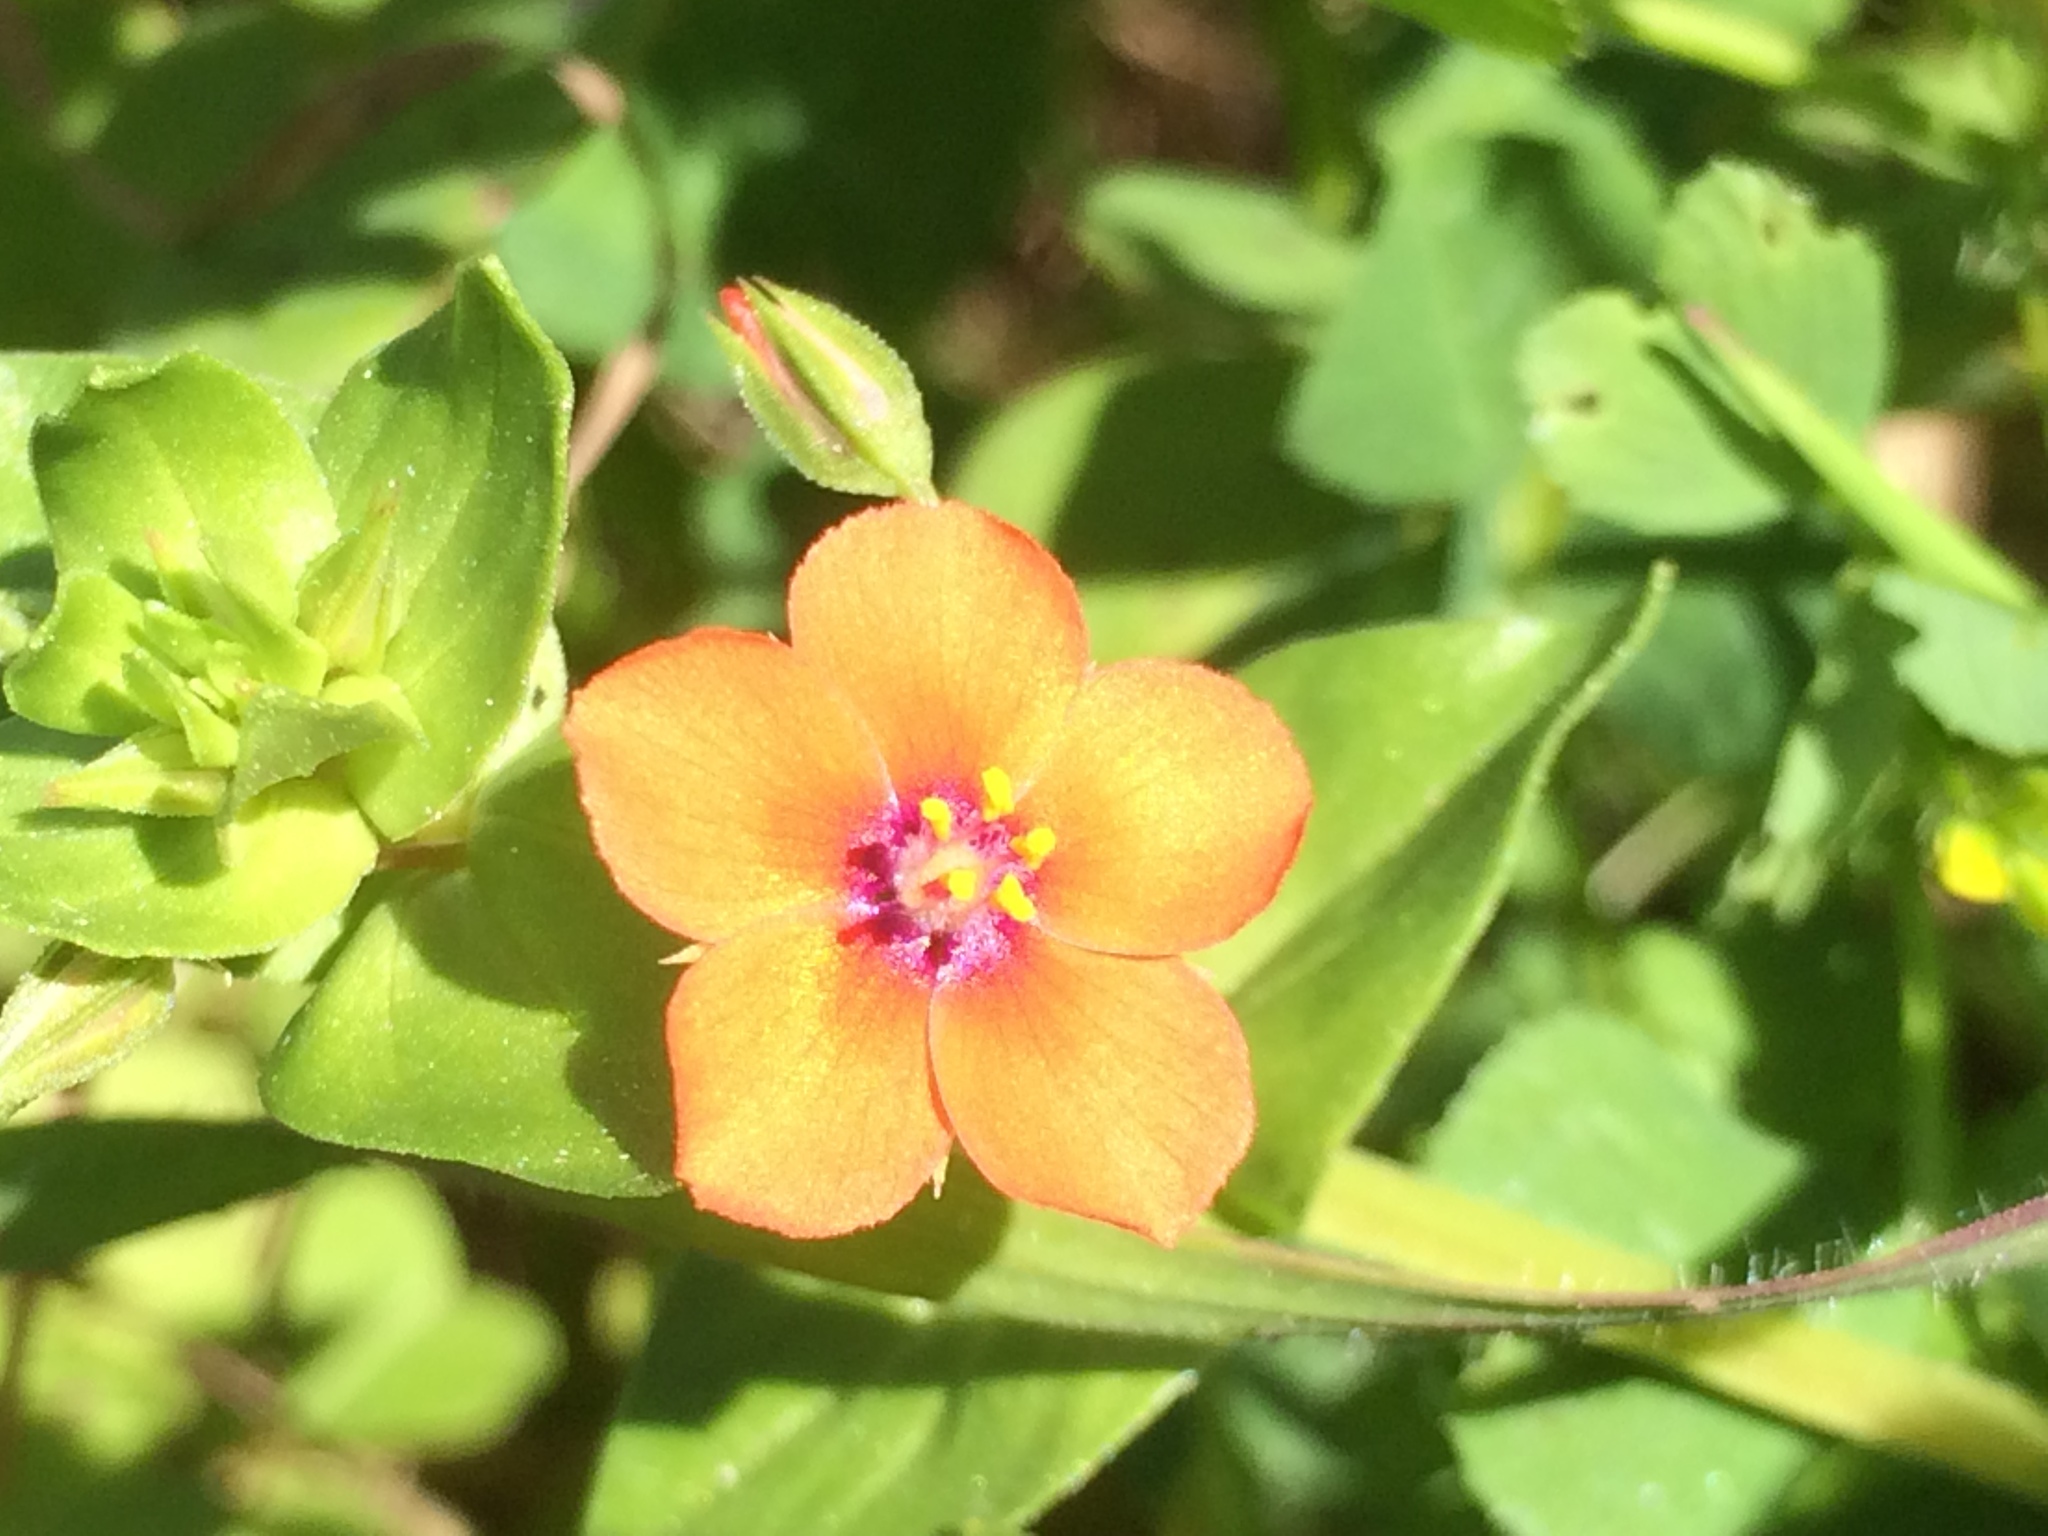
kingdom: Plantae
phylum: Tracheophyta
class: Magnoliopsida
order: Ericales
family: Primulaceae
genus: Lysimachia
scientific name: Lysimachia arvensis
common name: Scarlet pimpernel
